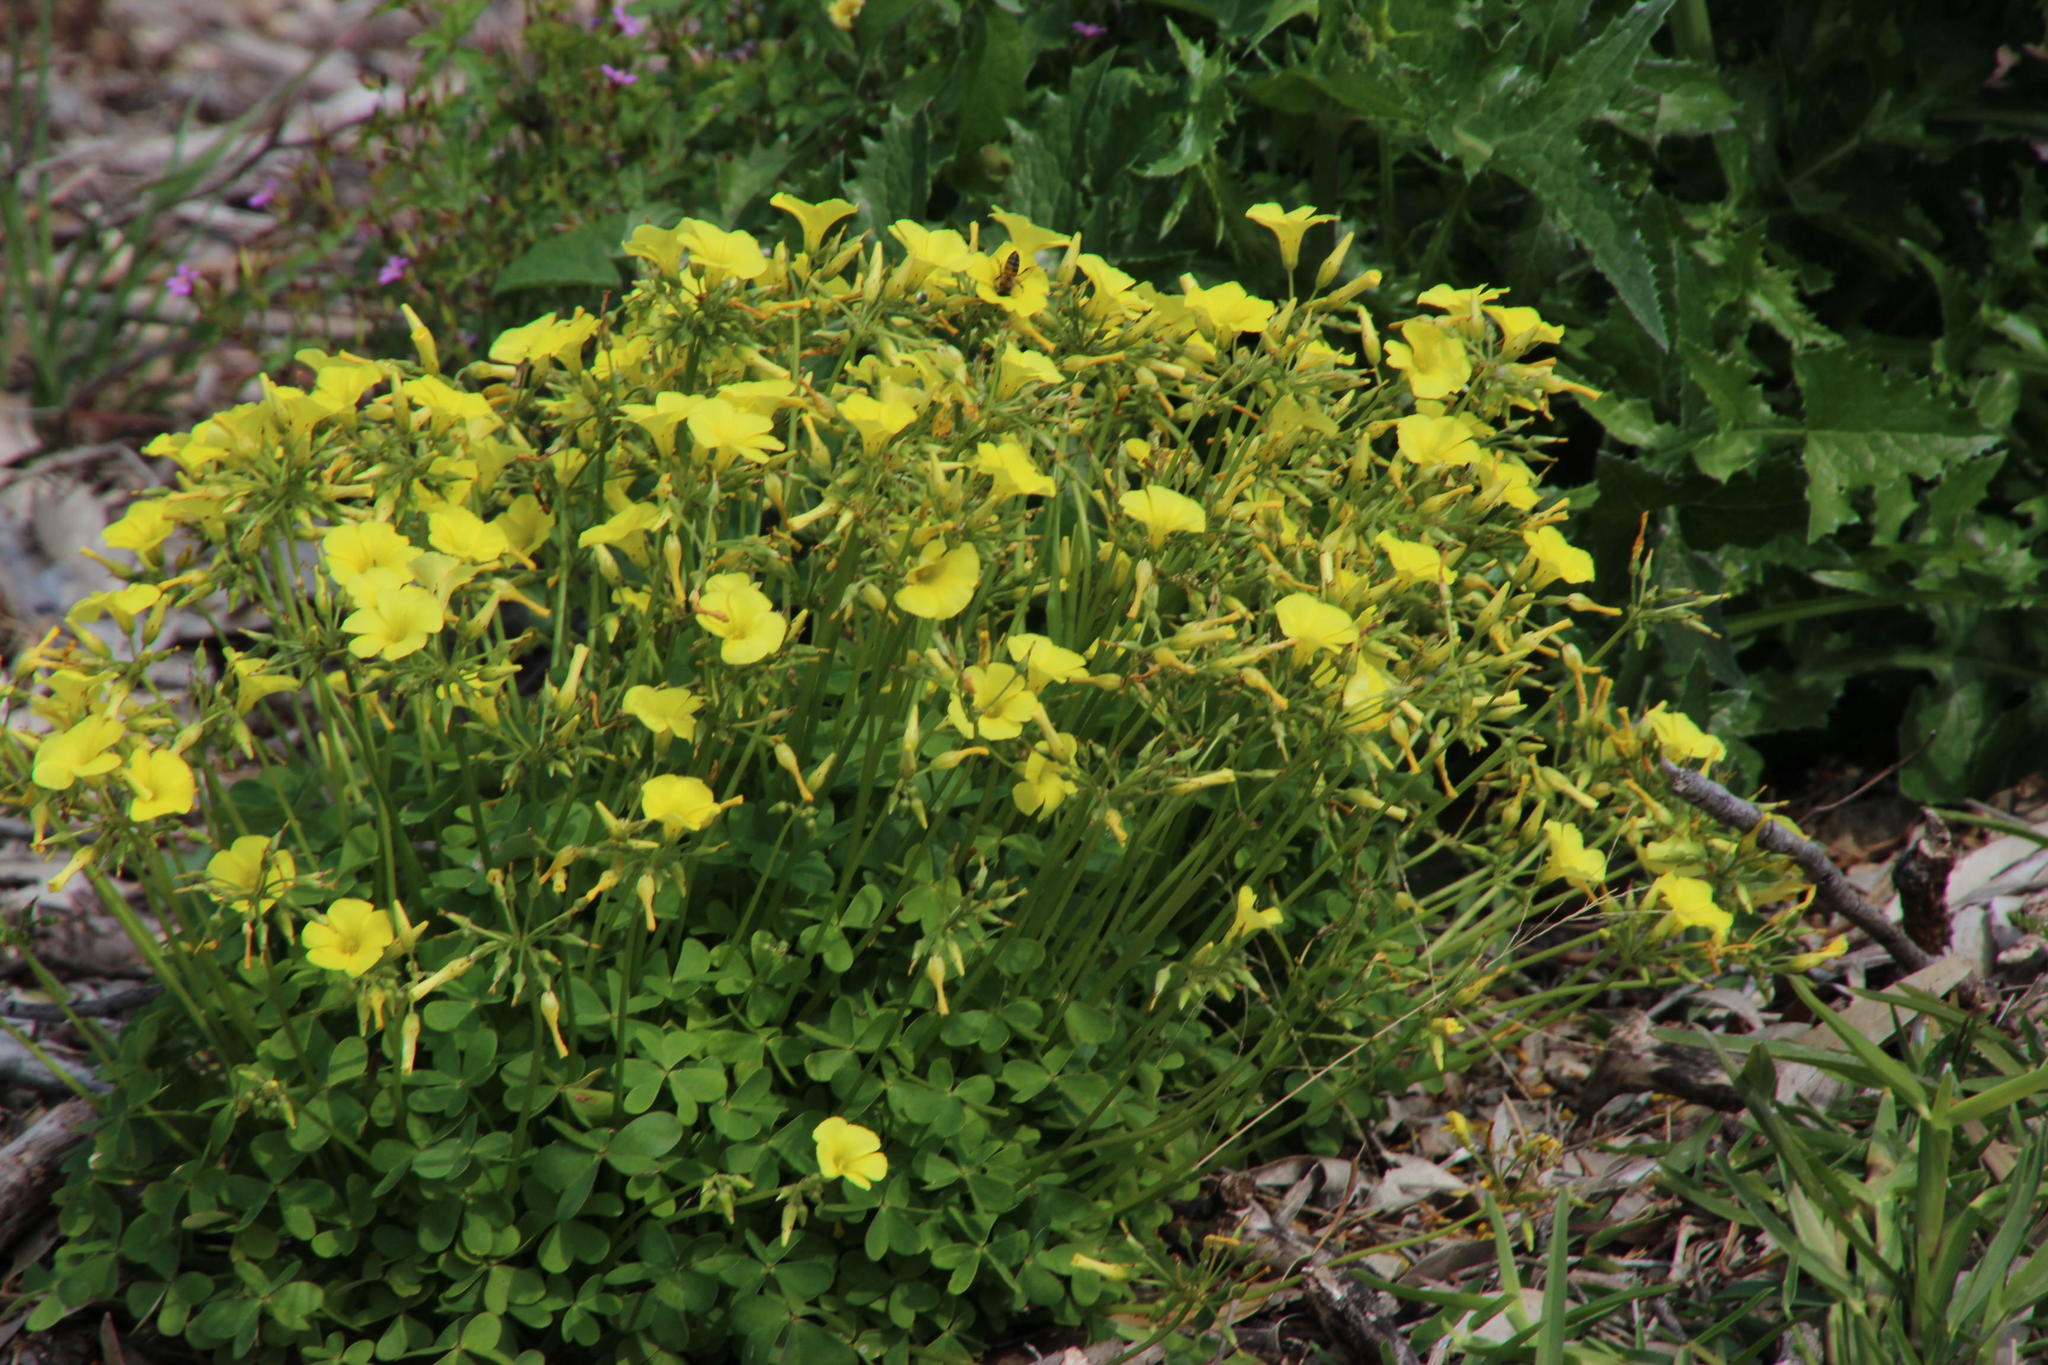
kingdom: Plantae
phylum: Tracheophyta
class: Magnoliopsida
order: Oxalidales
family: Oxalidaceae
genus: Oxalis
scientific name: Oxalis pes-caprae
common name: Bermuda-buttercup
